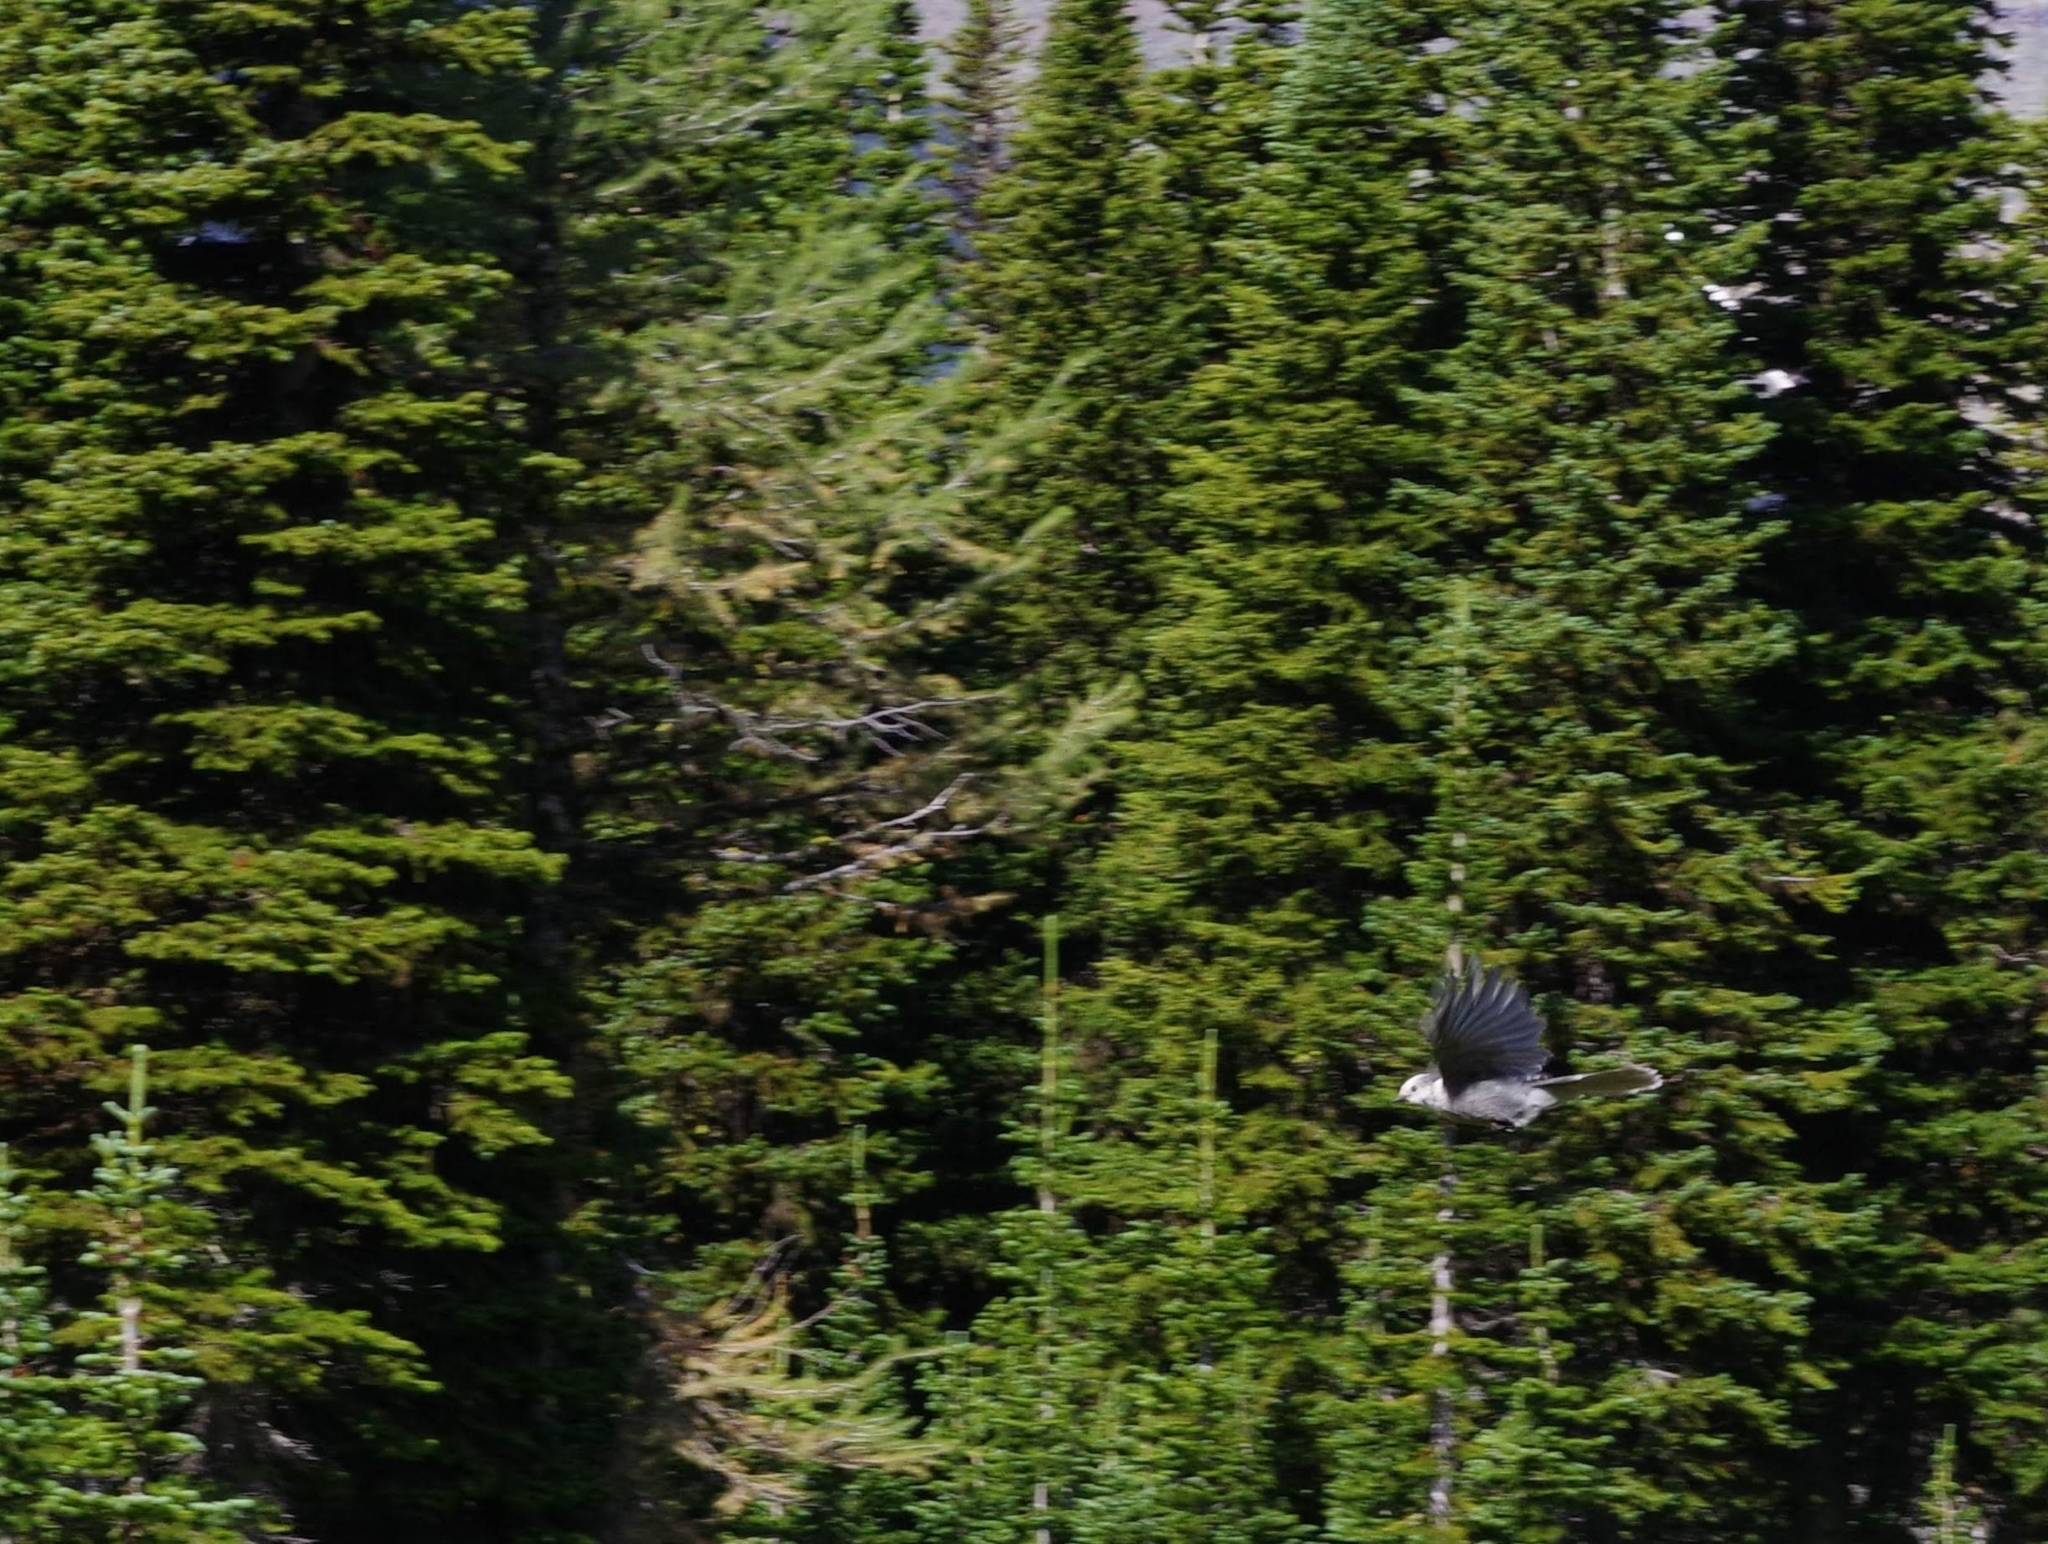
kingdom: Animalia
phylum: Chordata
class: Aves
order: Passeriformes
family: Corvidae
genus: Perisoreus
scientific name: Perisoreus canadensis
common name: Gray jay
